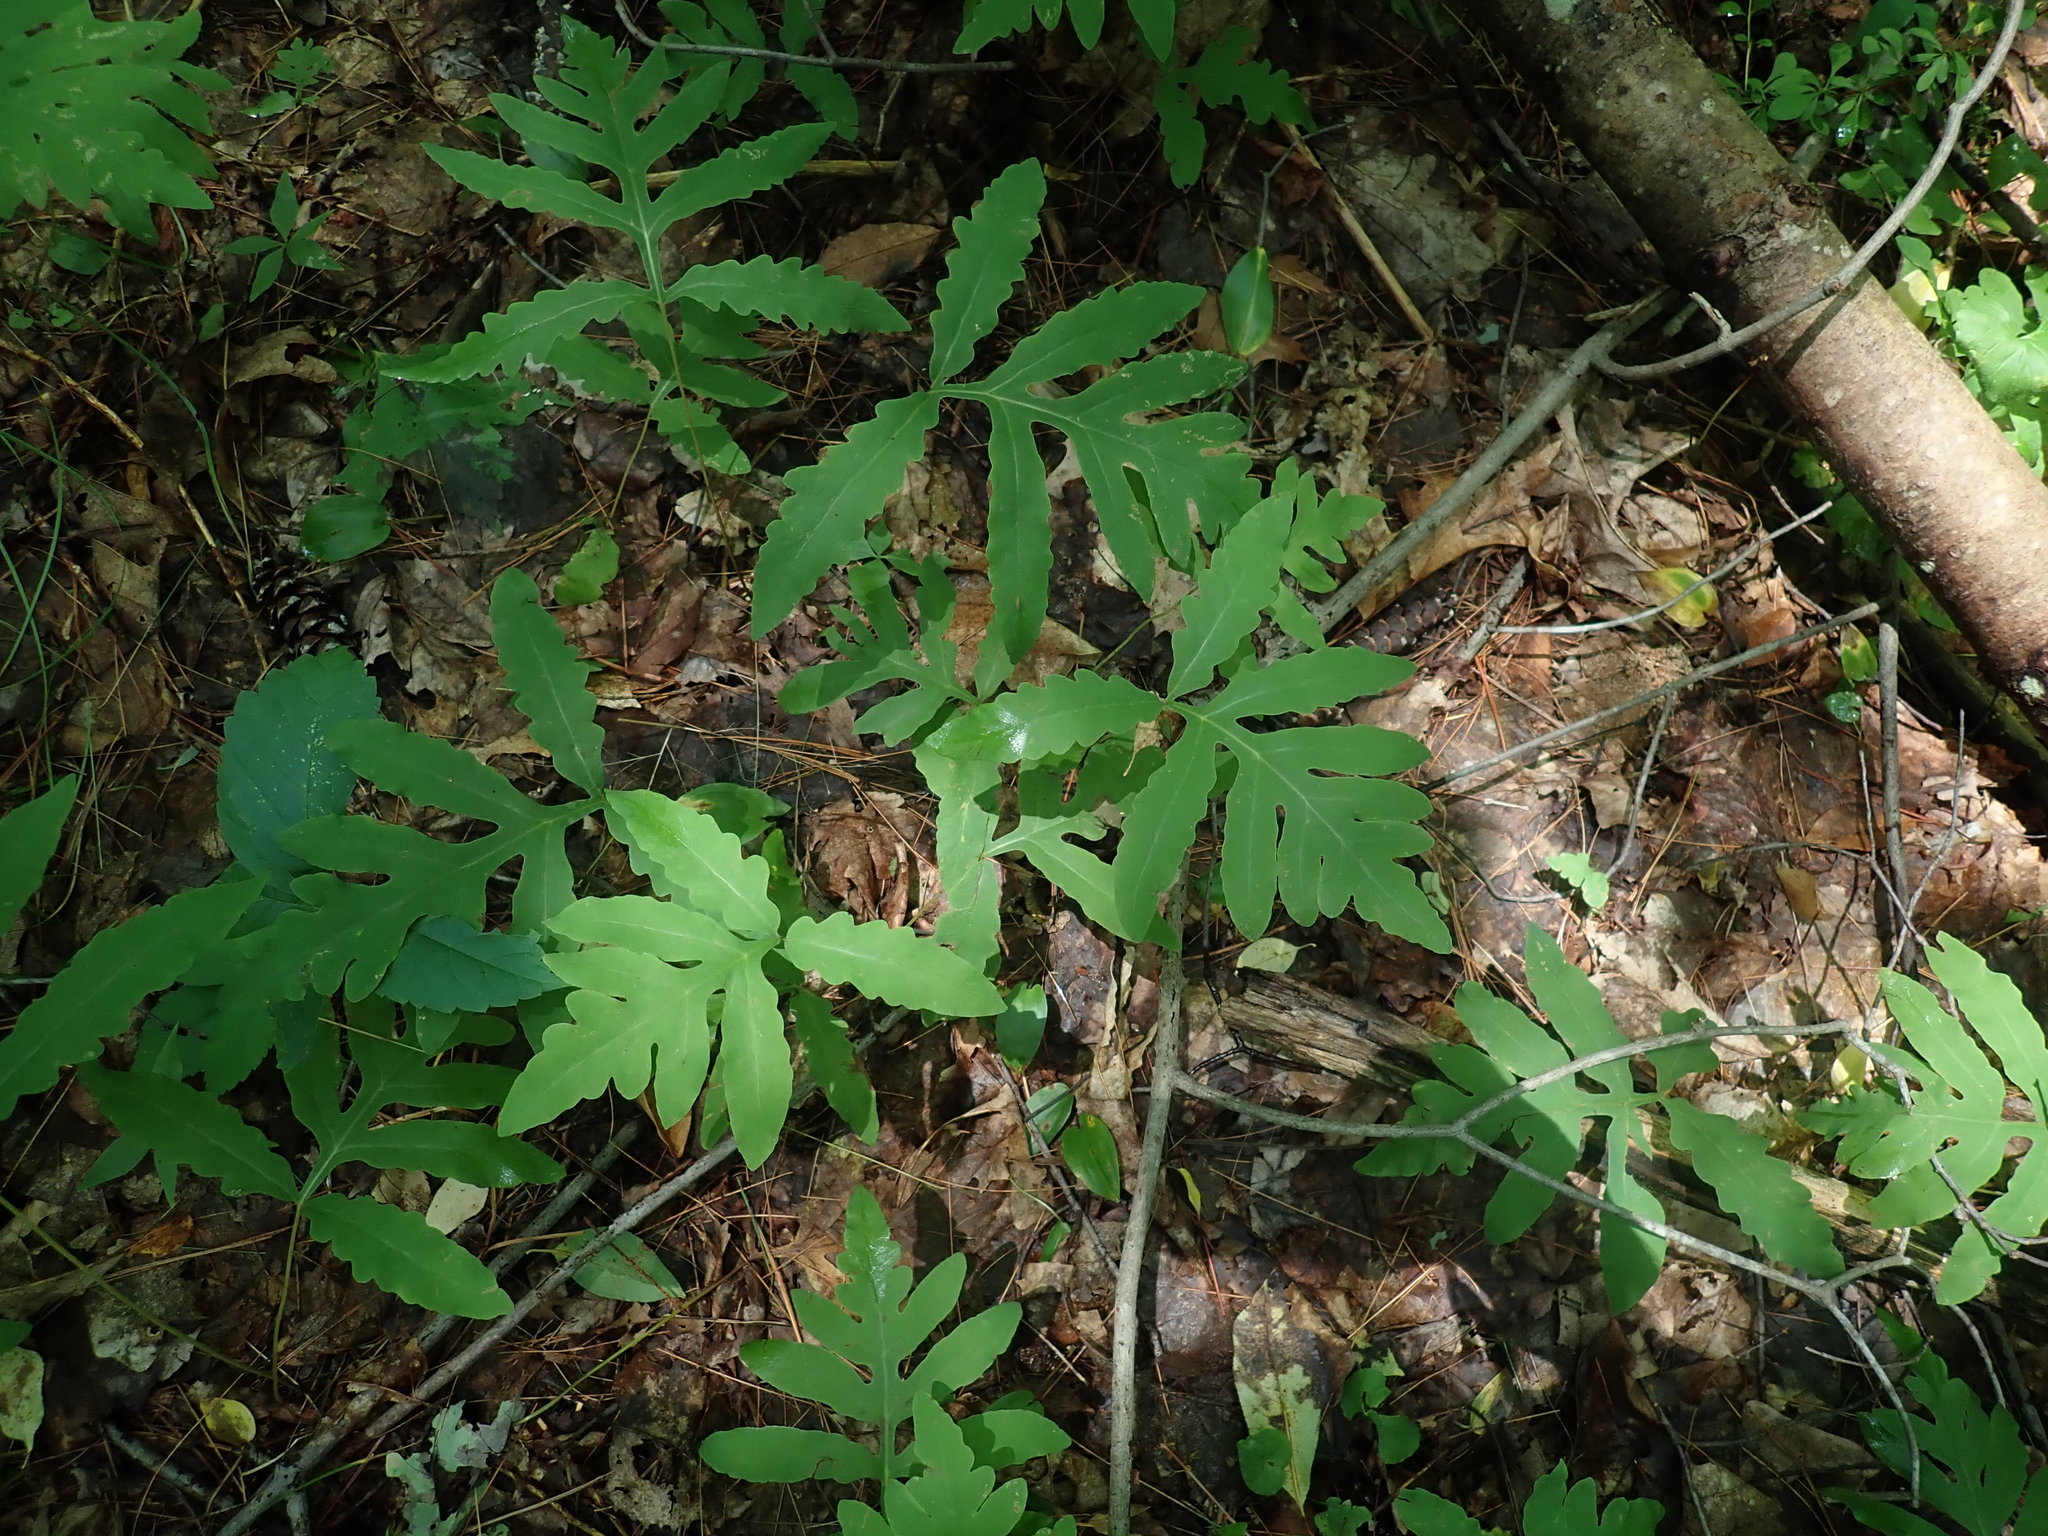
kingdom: Plantae
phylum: Tracheophyta
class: Polypodiopsida
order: Polypodiales
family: Onocleaceae
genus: Onoclea
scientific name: Onoclea sensibilis
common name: Sensitive fern
